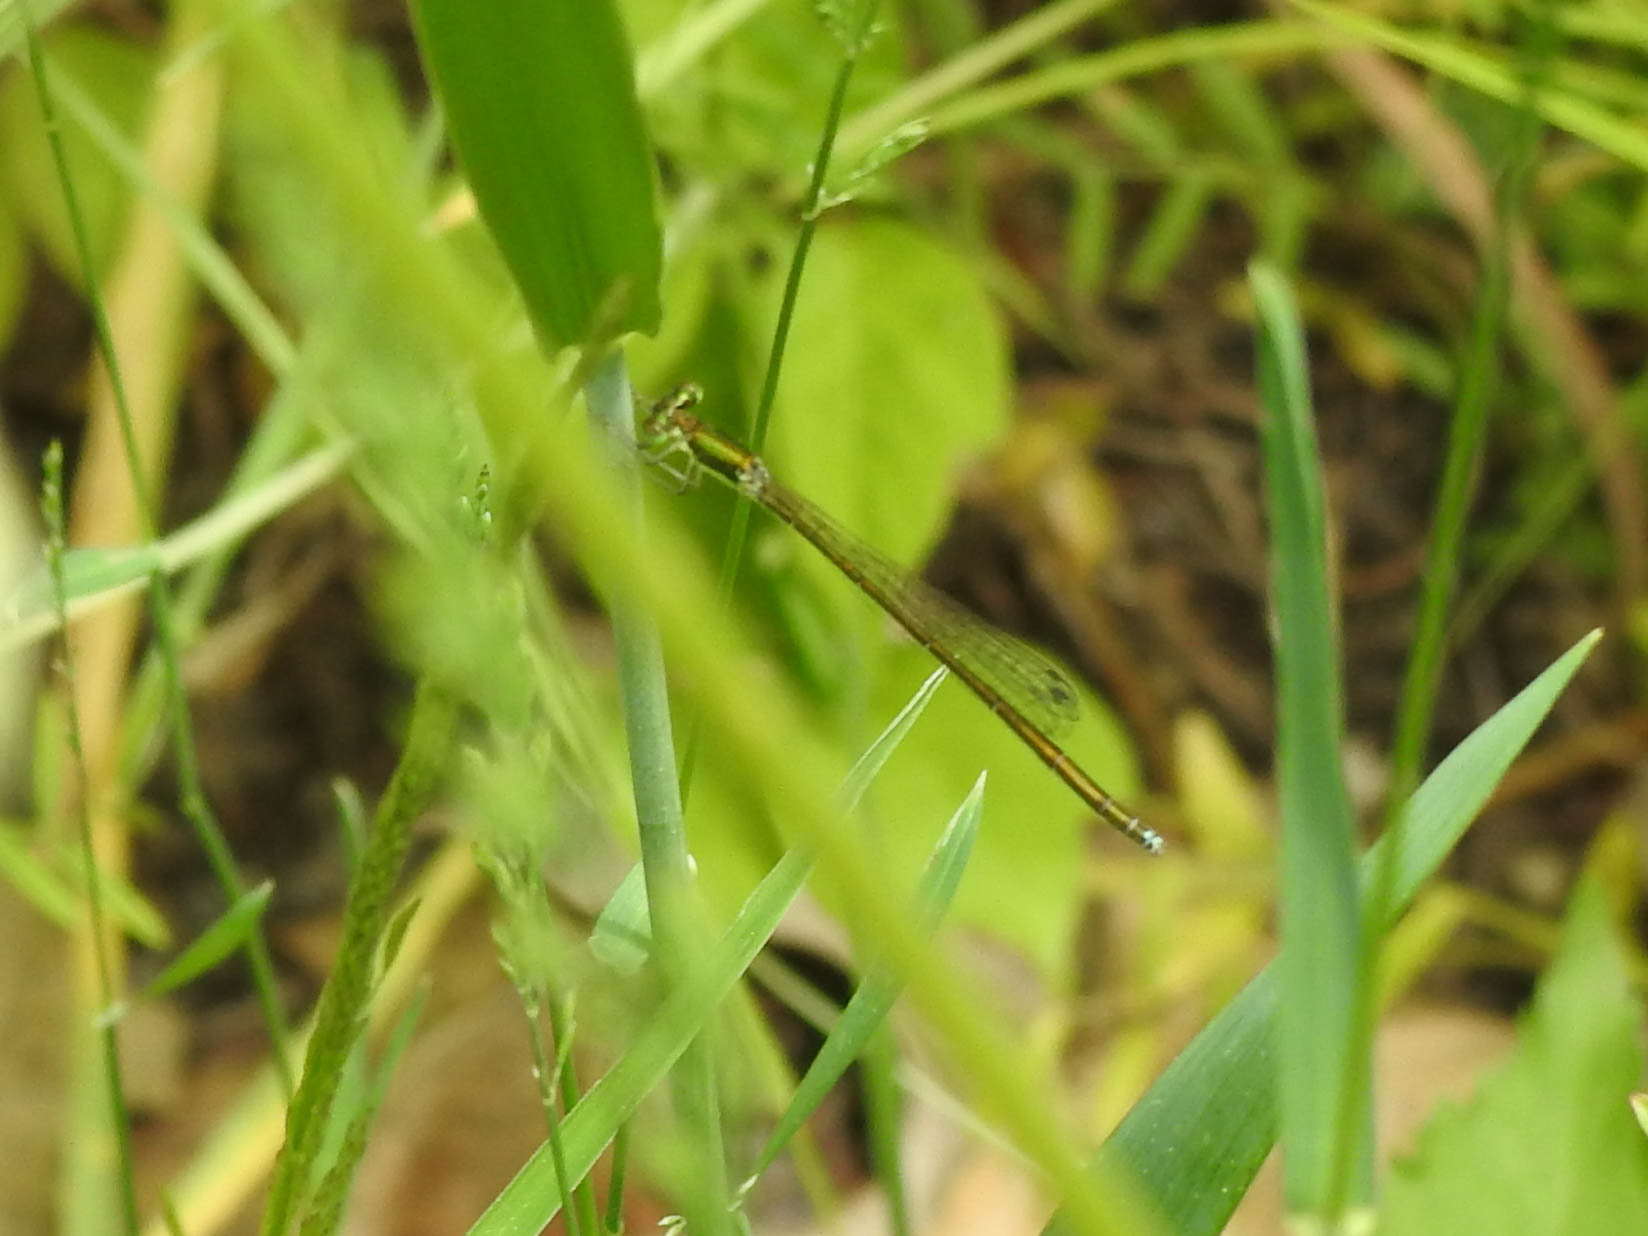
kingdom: Animalia
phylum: Arthropoda
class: Insecta
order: Odonata
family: Coenagrionidae
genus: Nehalennia
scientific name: Nehalennia irene
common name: Sedge sprite
